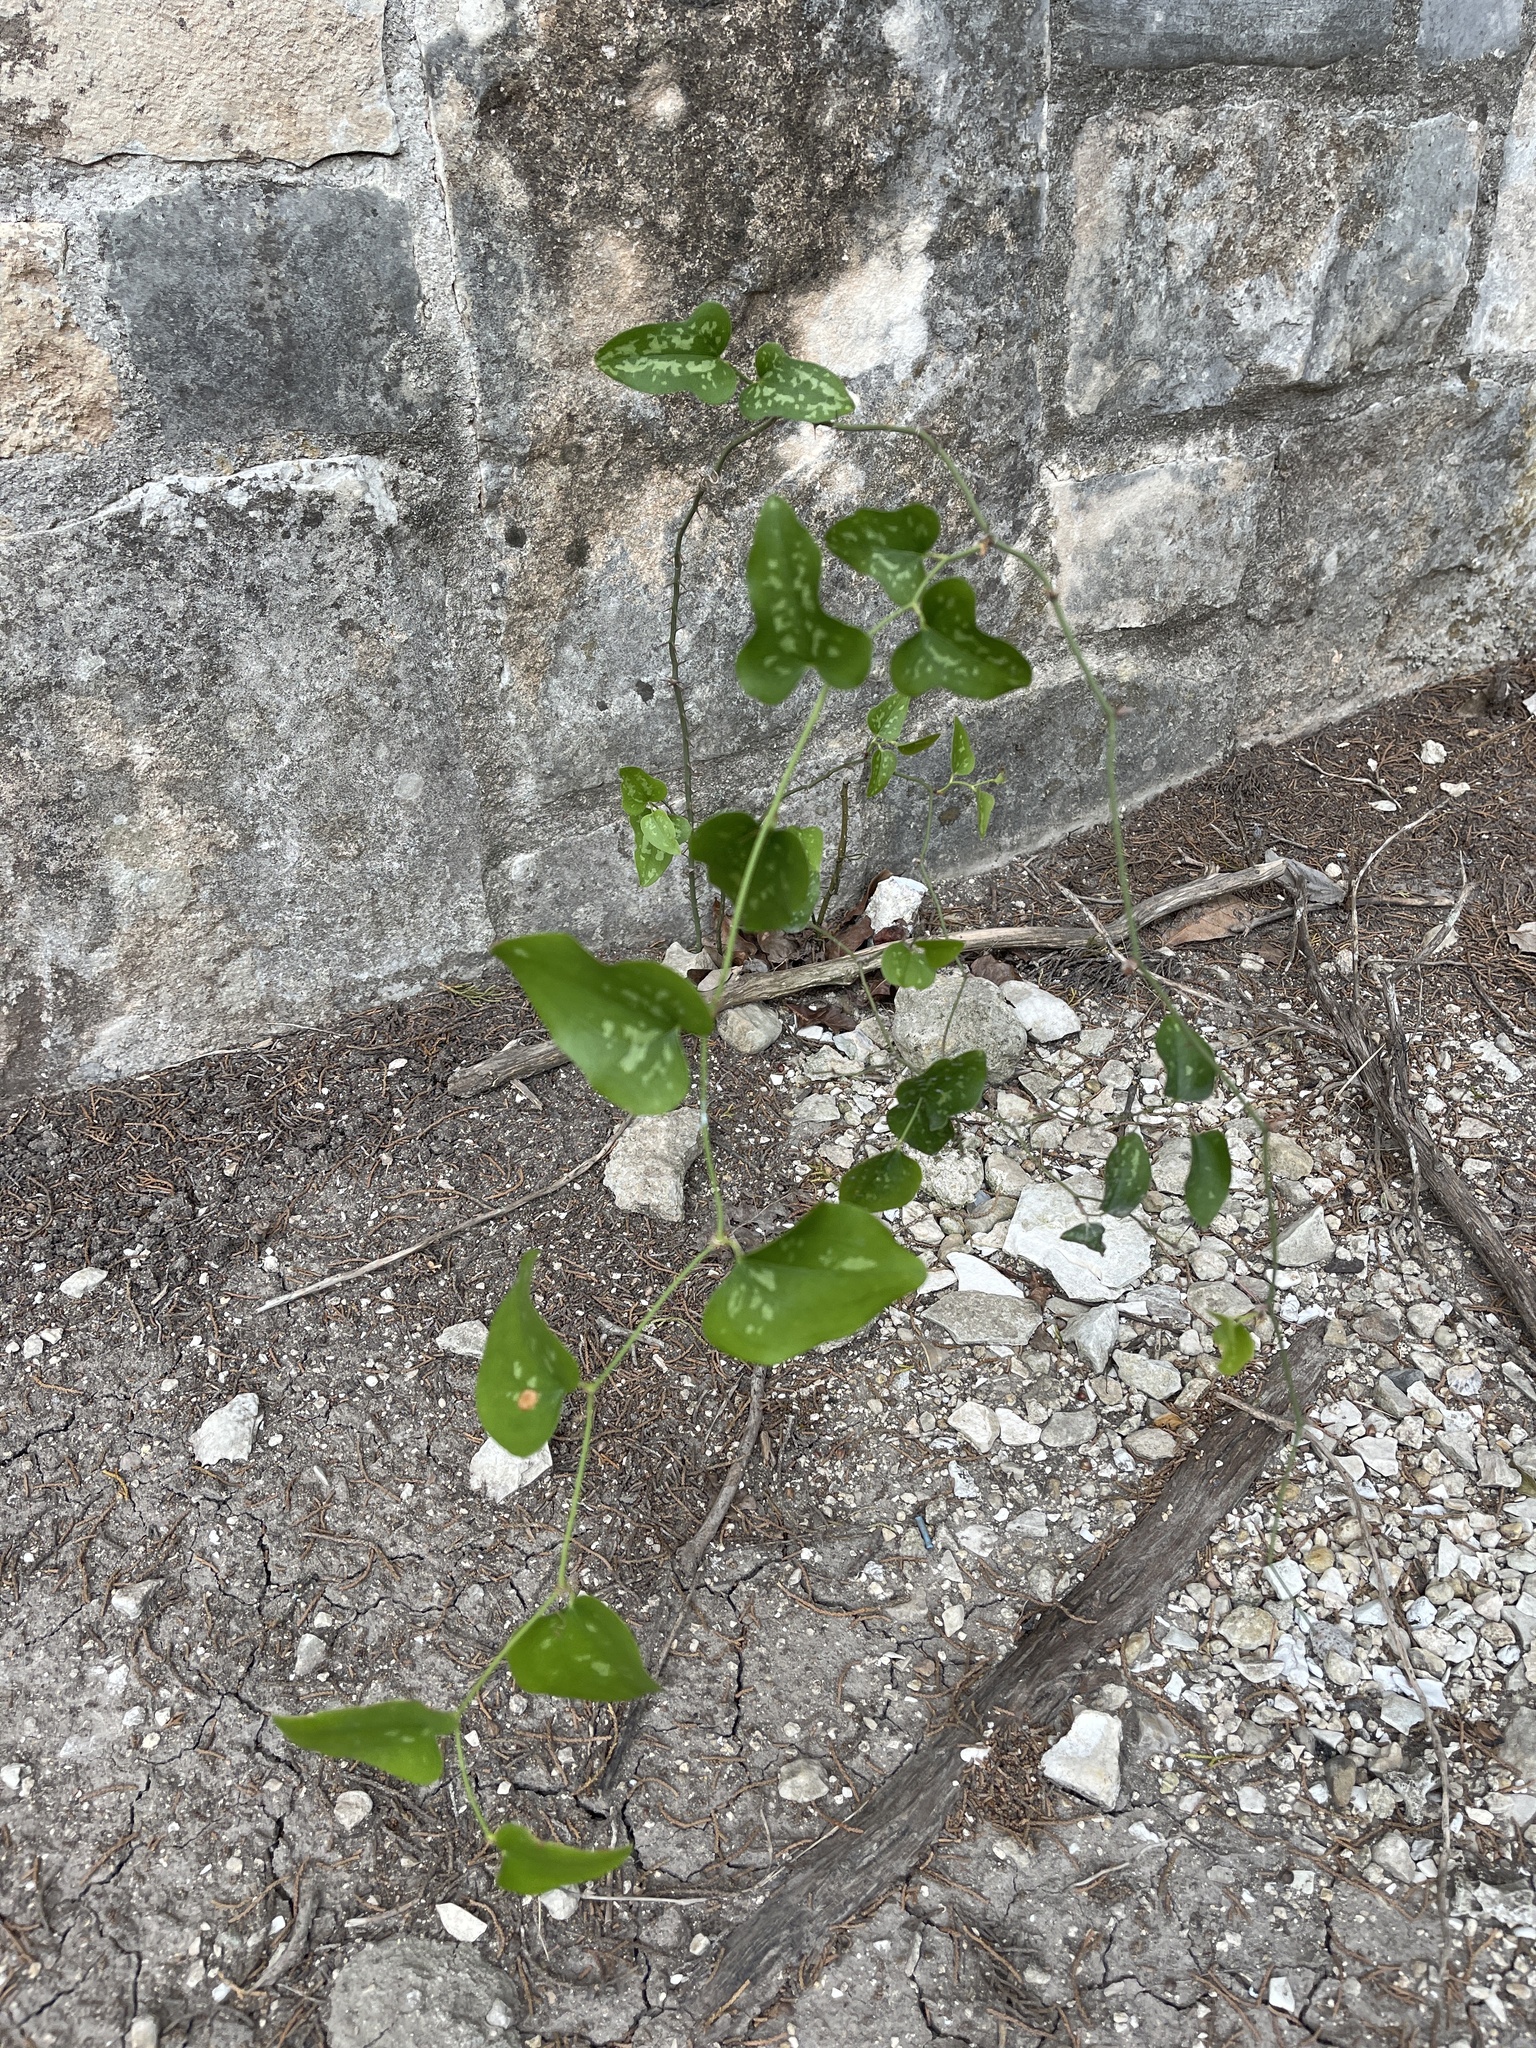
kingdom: Plantae
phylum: Tracheophyta
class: Liliopsida
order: Liliales
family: Smilacaceae
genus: Smilax
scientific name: Smilax bona-nox
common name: Catbrier
